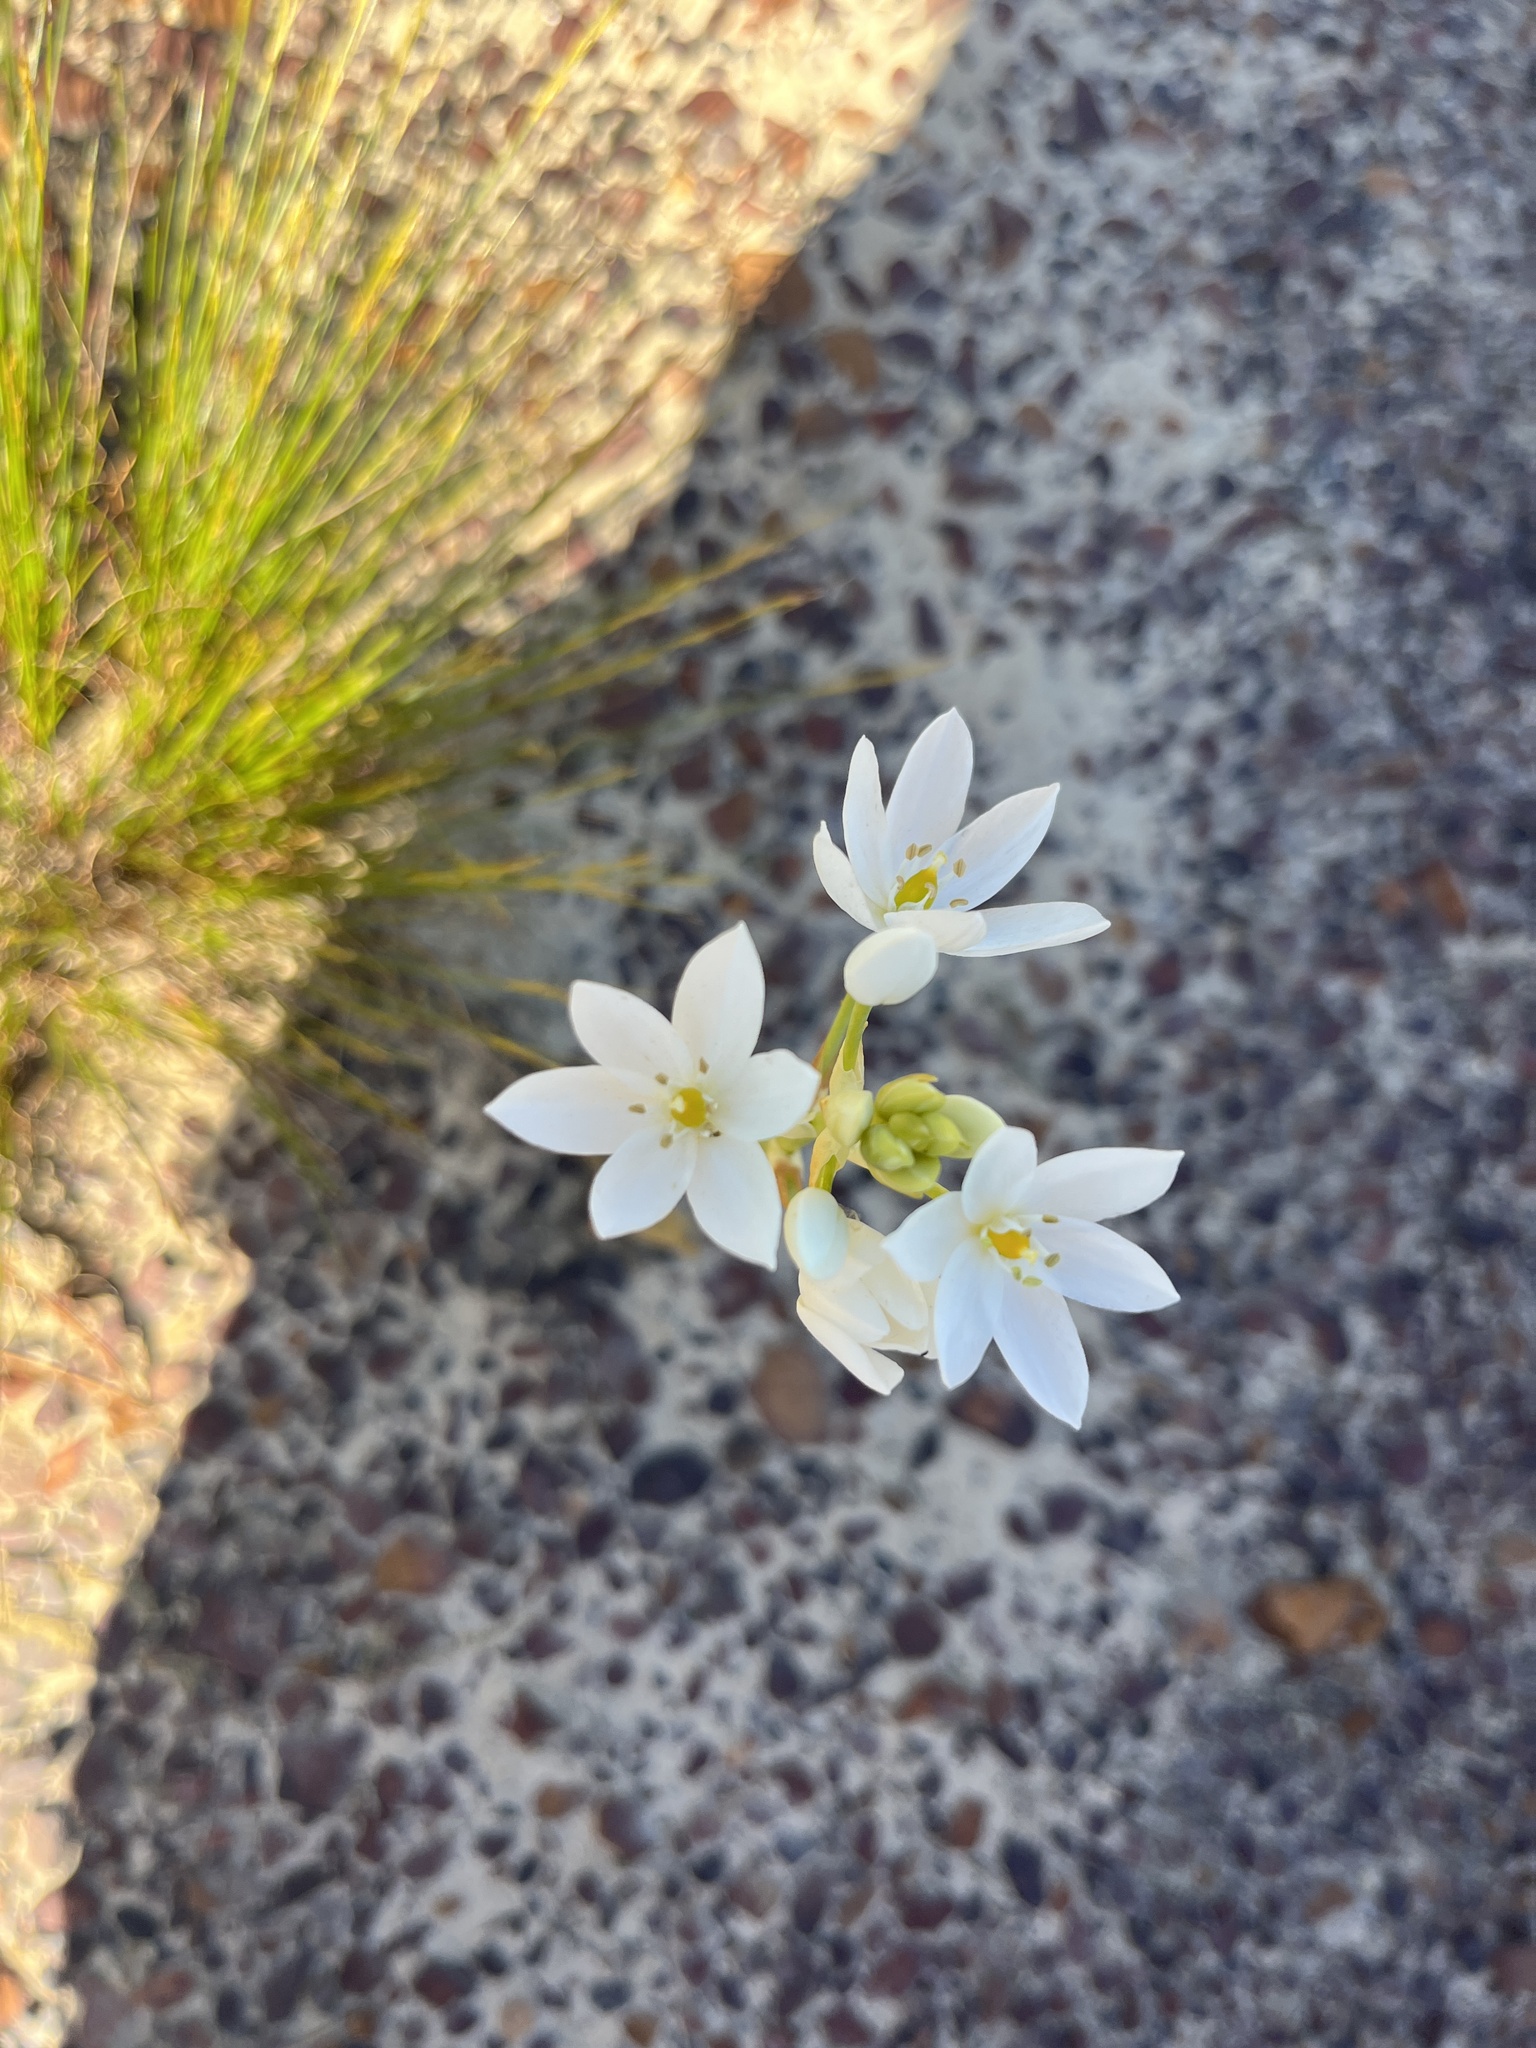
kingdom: Plantae
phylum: Tracheophyta
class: Liliopsida
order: Asparagales
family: Asparagaceae
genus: Ornithogalum
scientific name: Ornithogalum thyrsoides
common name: Chincherinchee
